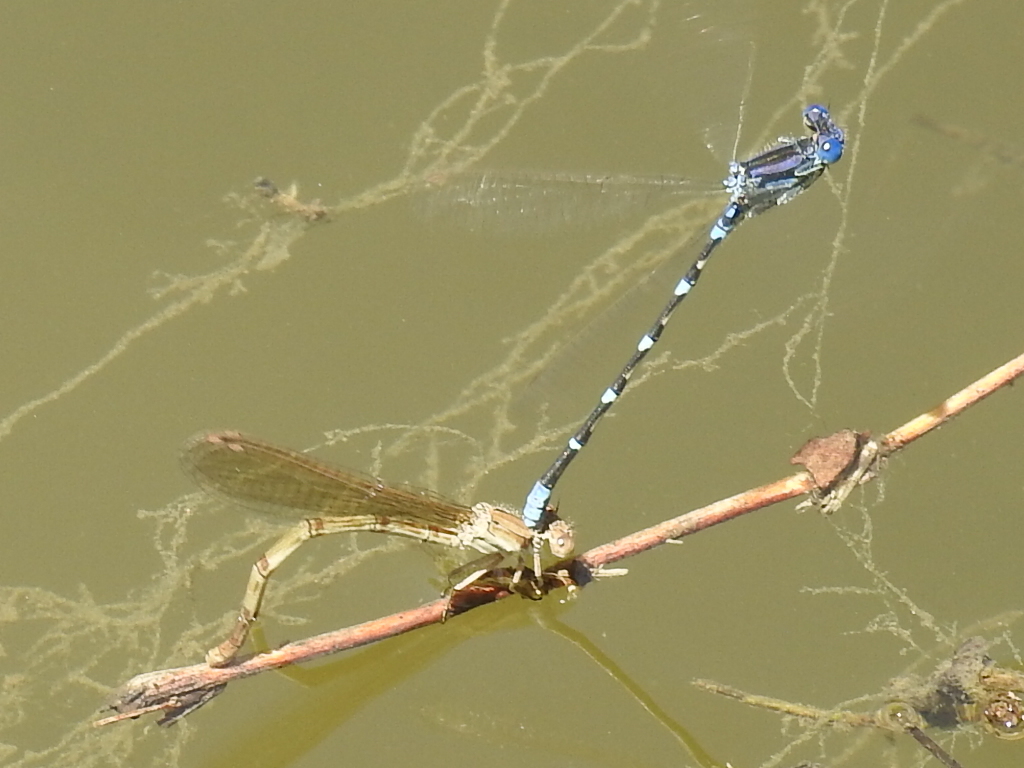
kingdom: Animalia
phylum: Arthropoda
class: Insecta
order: Odonata
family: Coenagrionidae
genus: Argia
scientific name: Argia sedula
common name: Blue-ringed dancer
